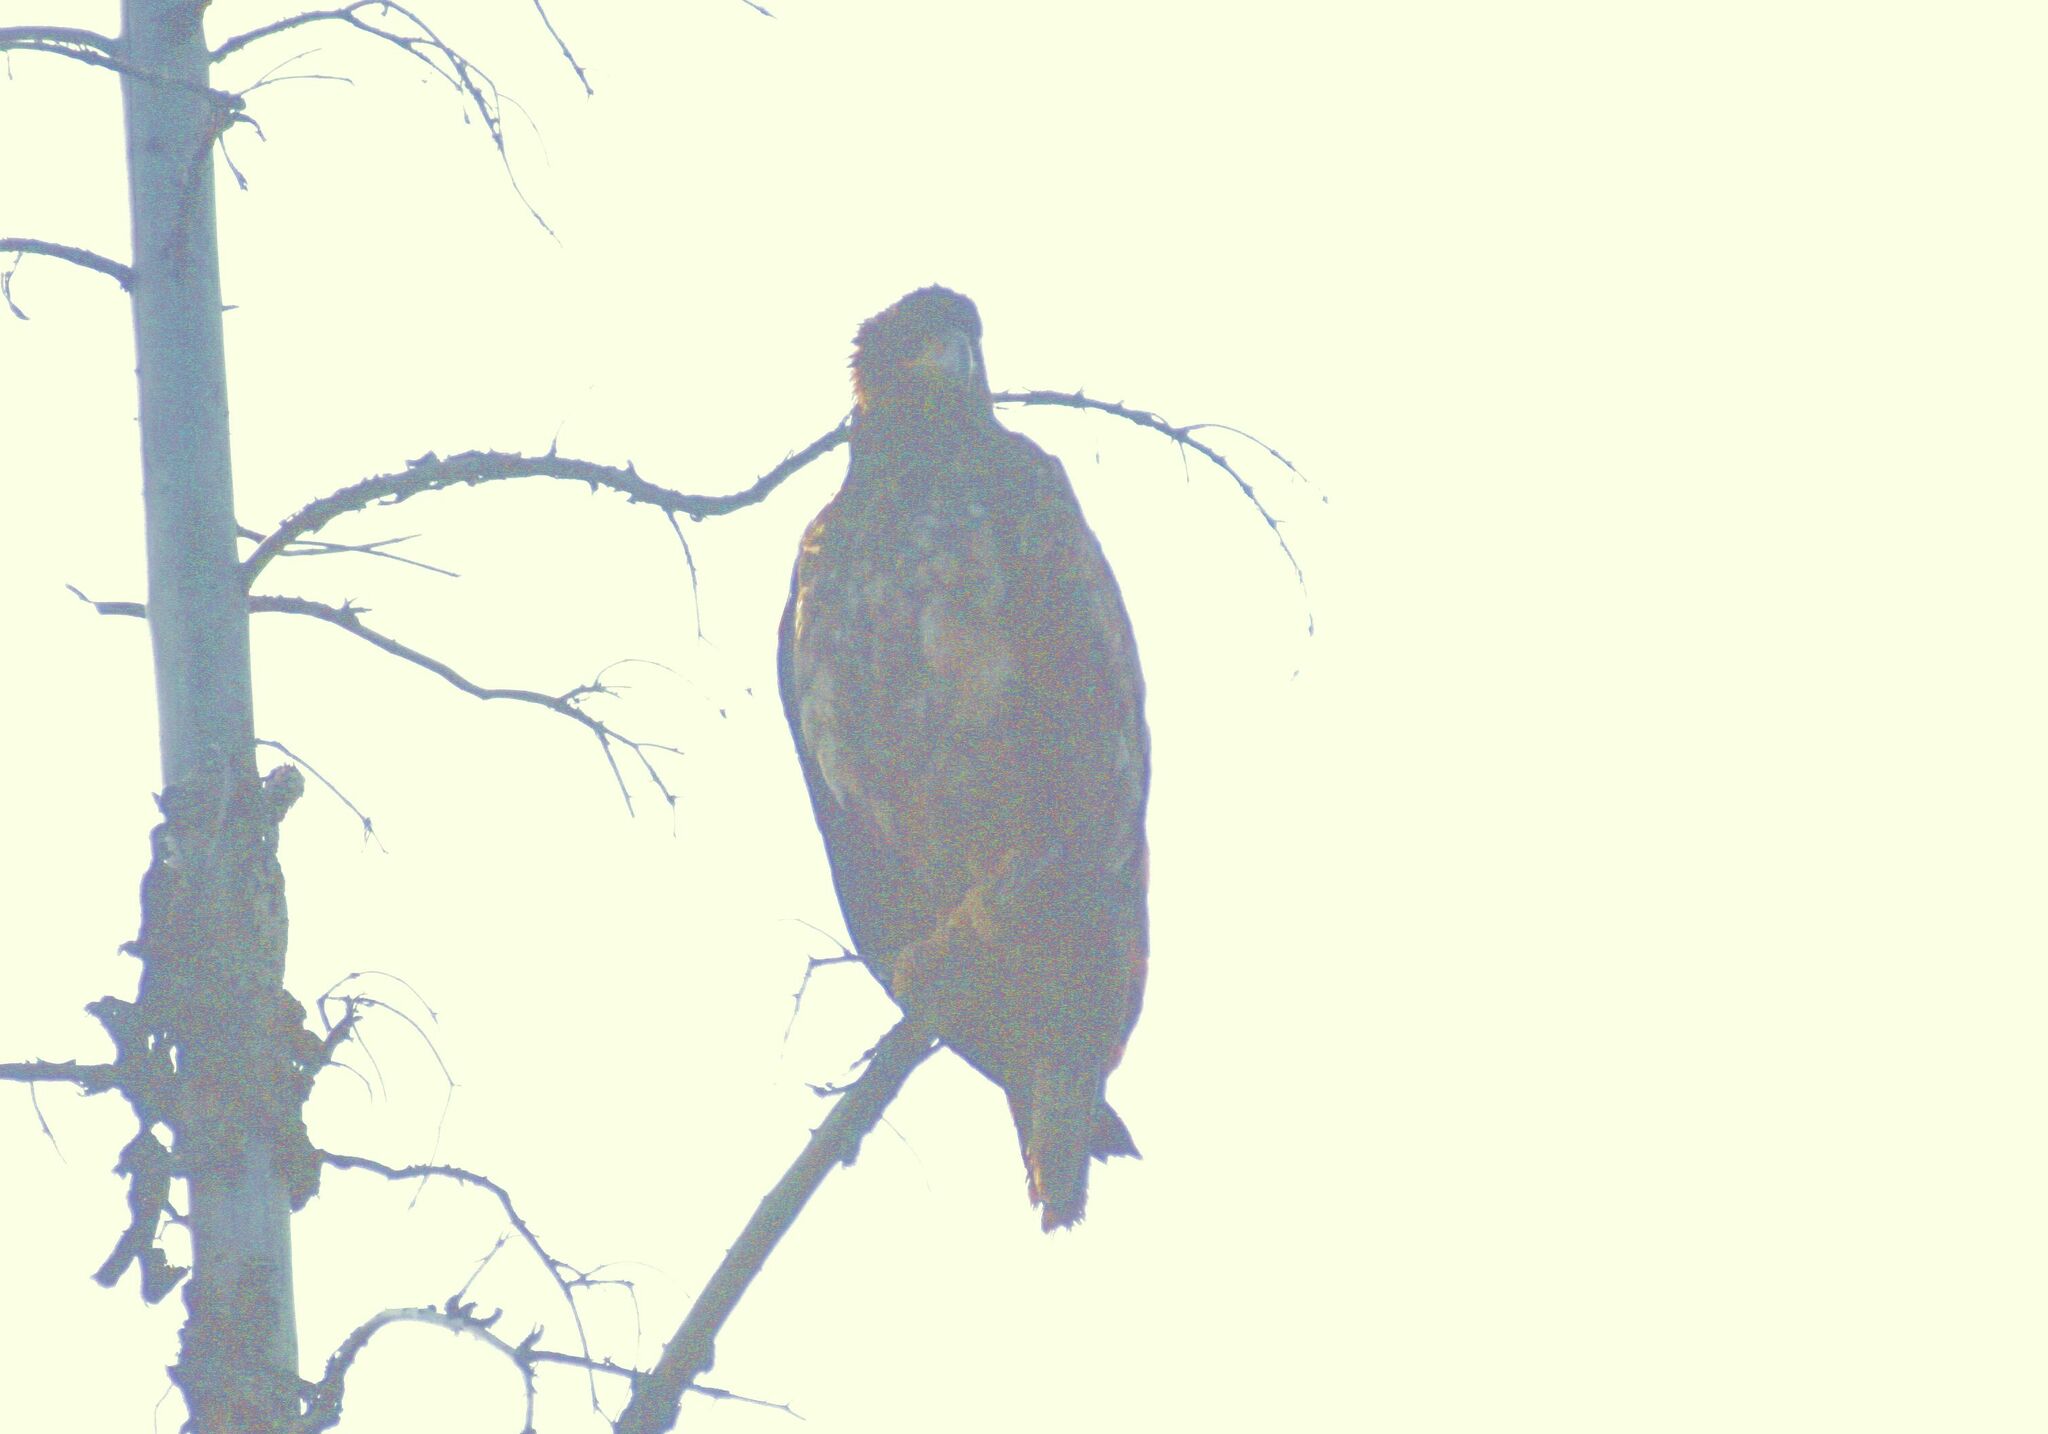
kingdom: Animalia
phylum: Chordata
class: Aves
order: Accipitriformes
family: Accipitridae
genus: Haliaeetus
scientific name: Haliaeetus leucocephalus
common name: Bald eagle
